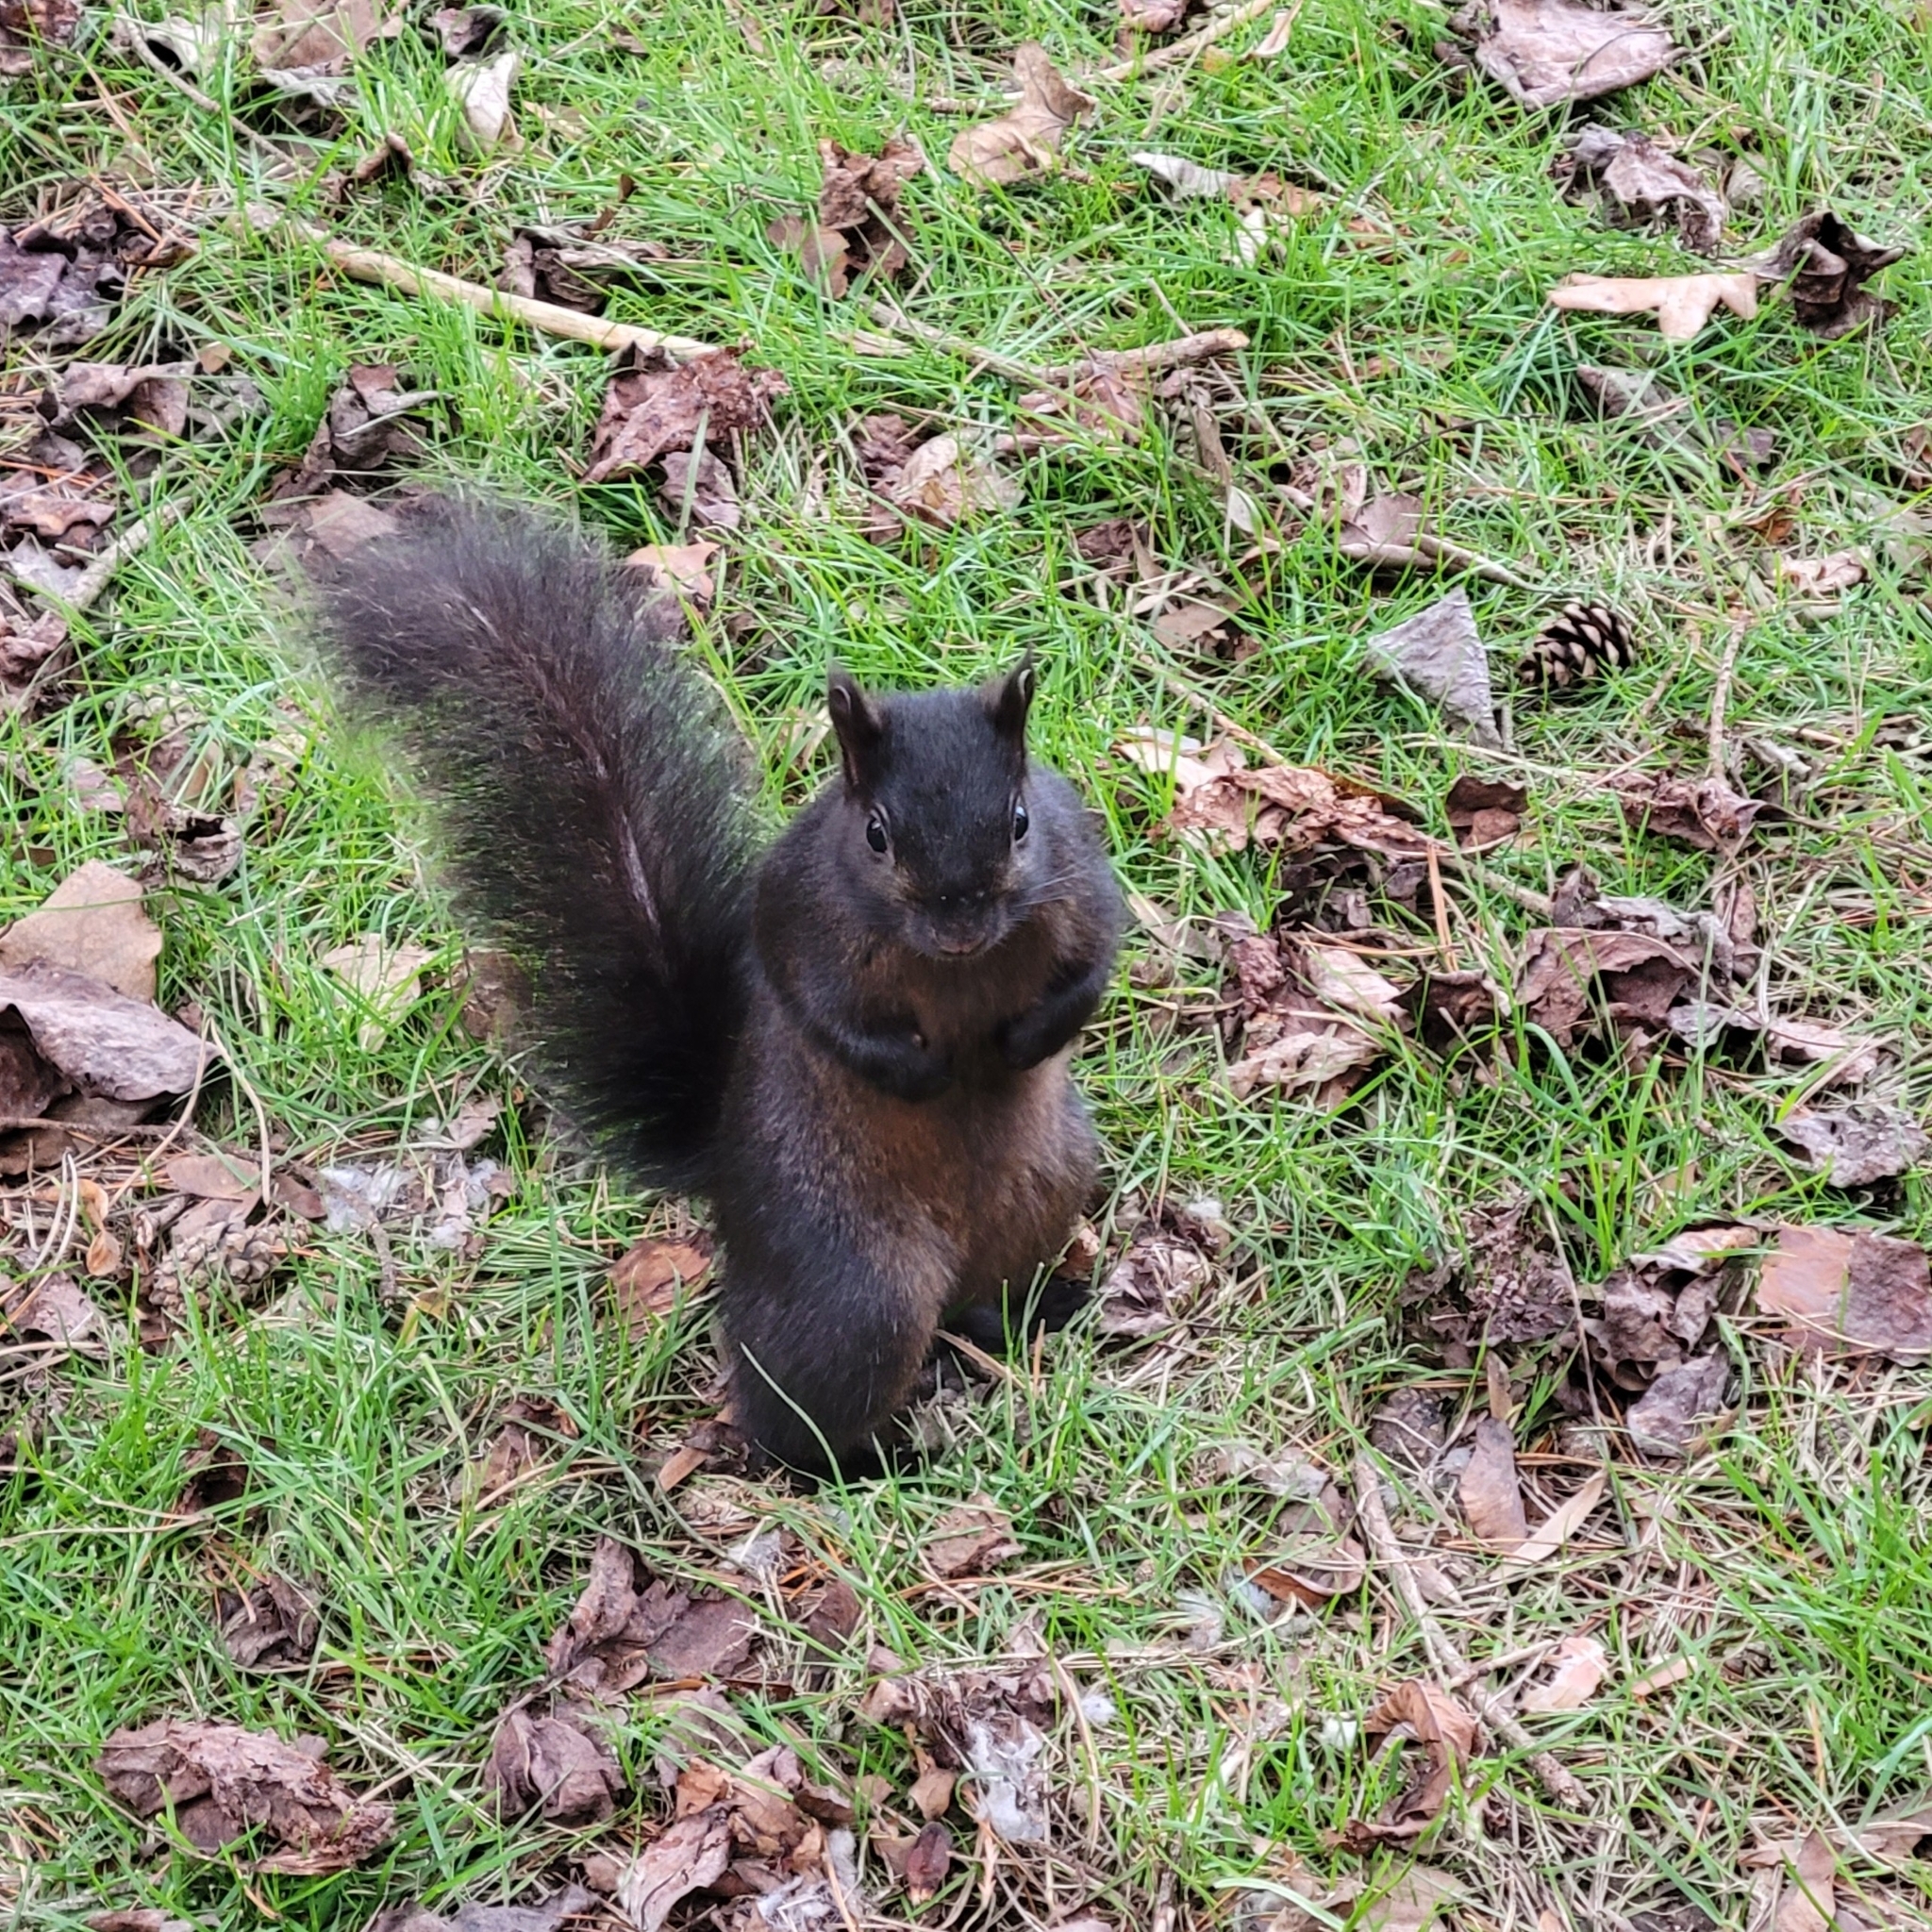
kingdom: Animalia
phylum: Chordata
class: Mammalia
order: Rodentia
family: Sciuridae
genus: Sciurus
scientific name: Sciurus carolinensis
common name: Eastern gray squirrel
